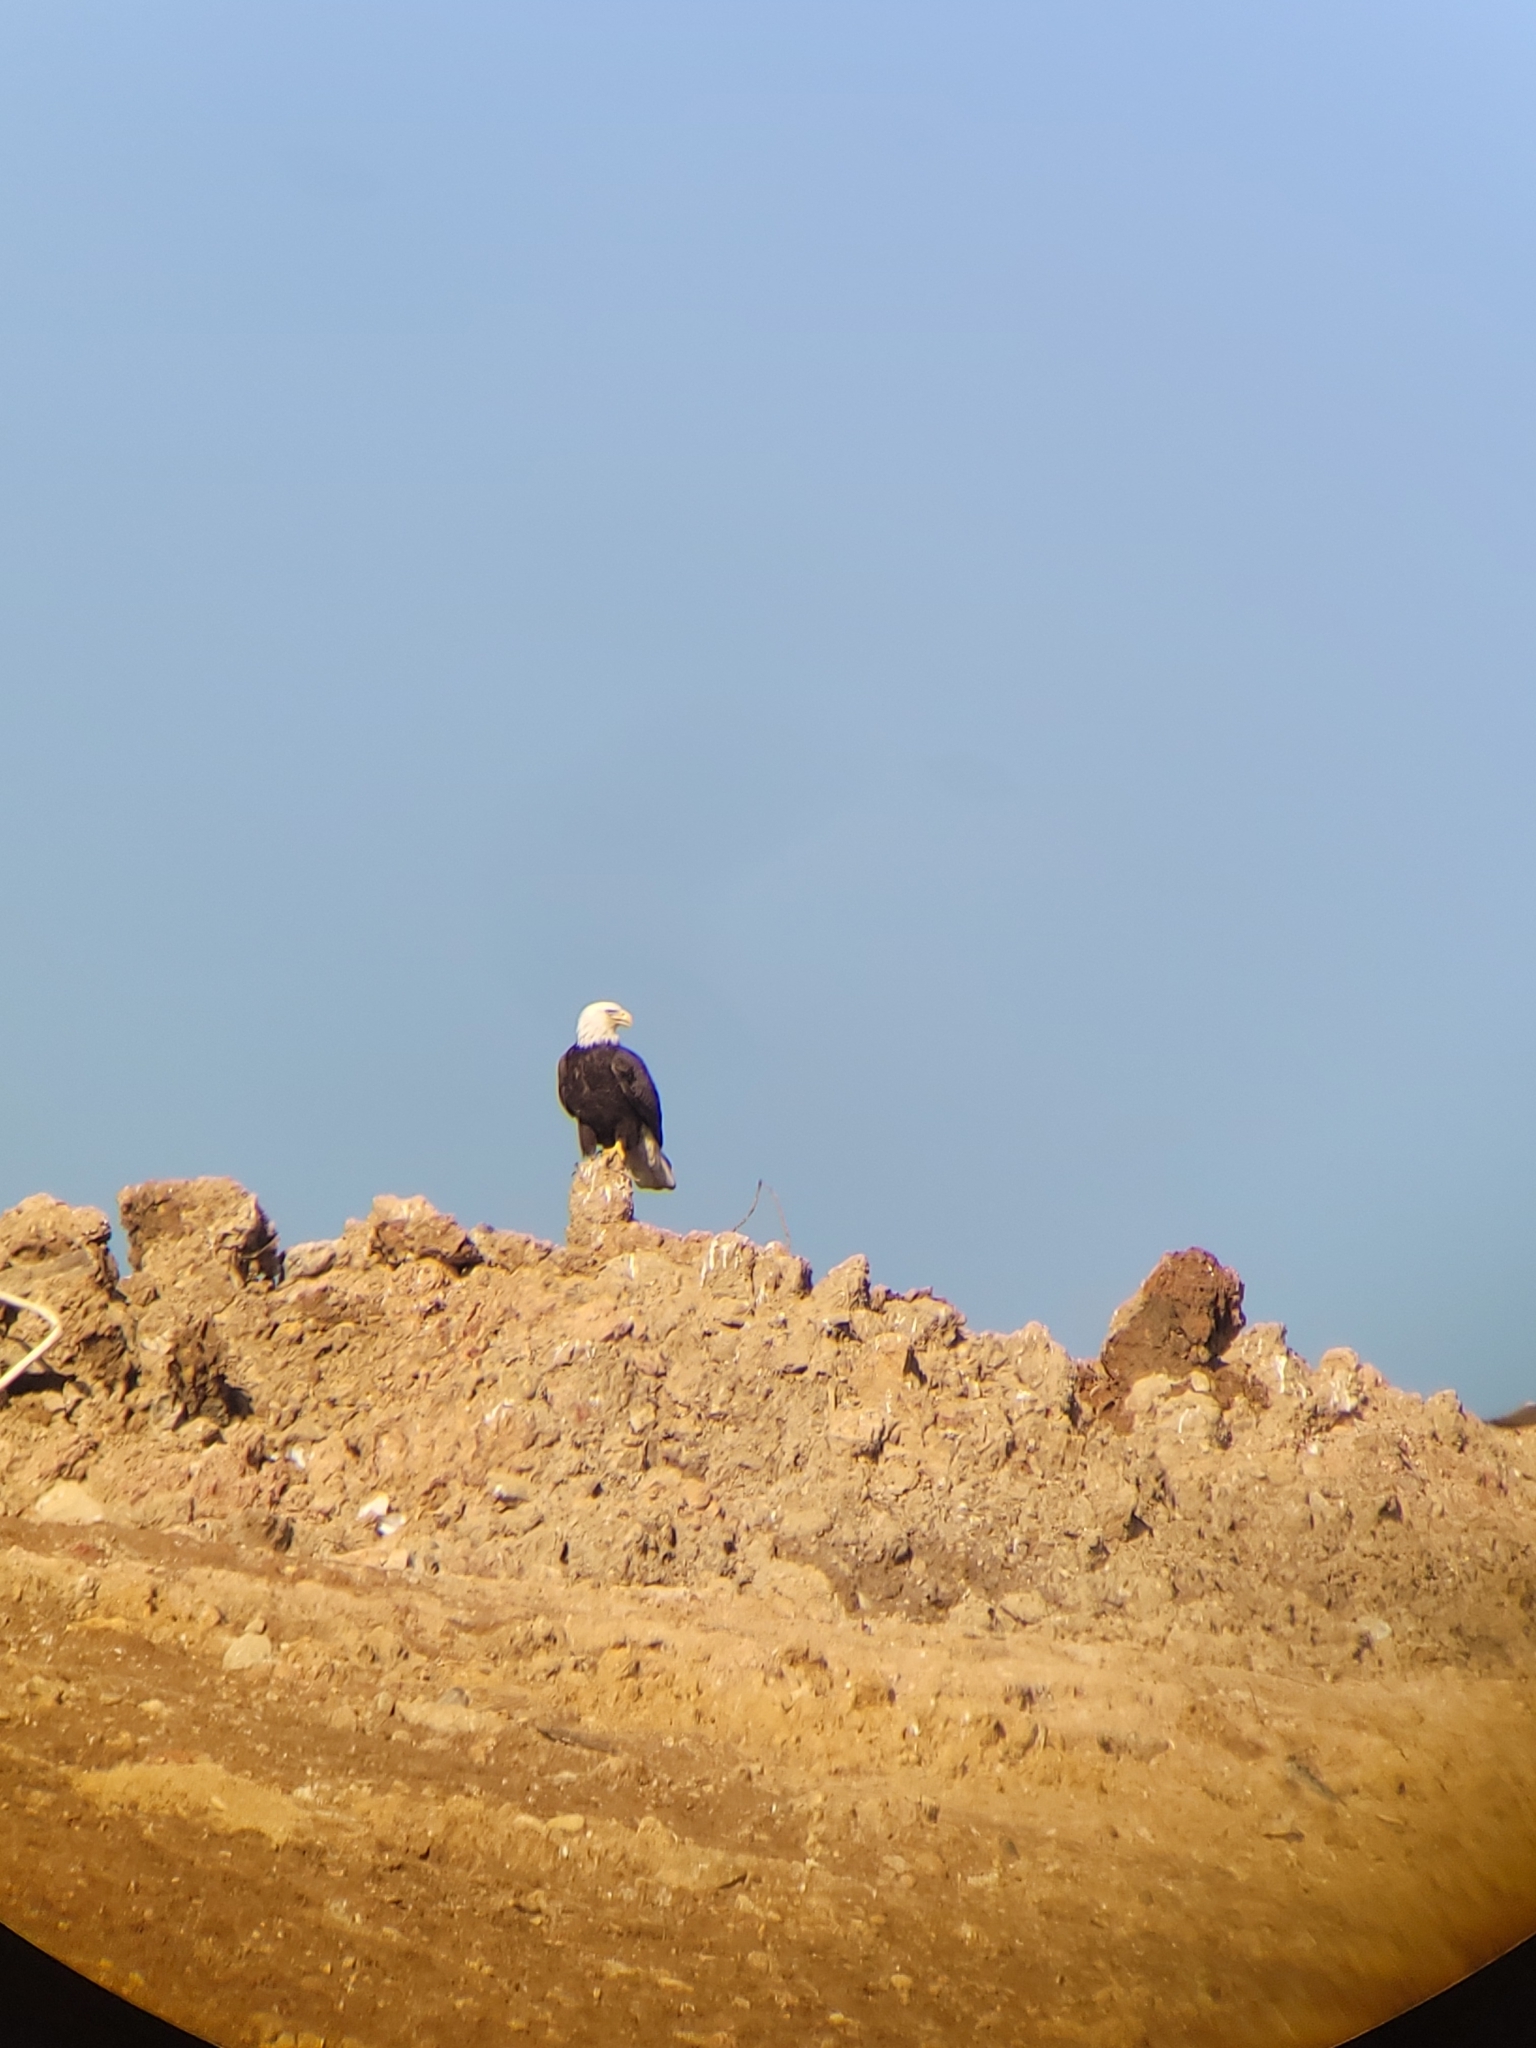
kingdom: Animalia
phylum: Chordata
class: Aves
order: Accipitriformes
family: Accipitridae
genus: Haliaeetus
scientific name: Haliaeetus leucocephalus
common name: Bald eagle
